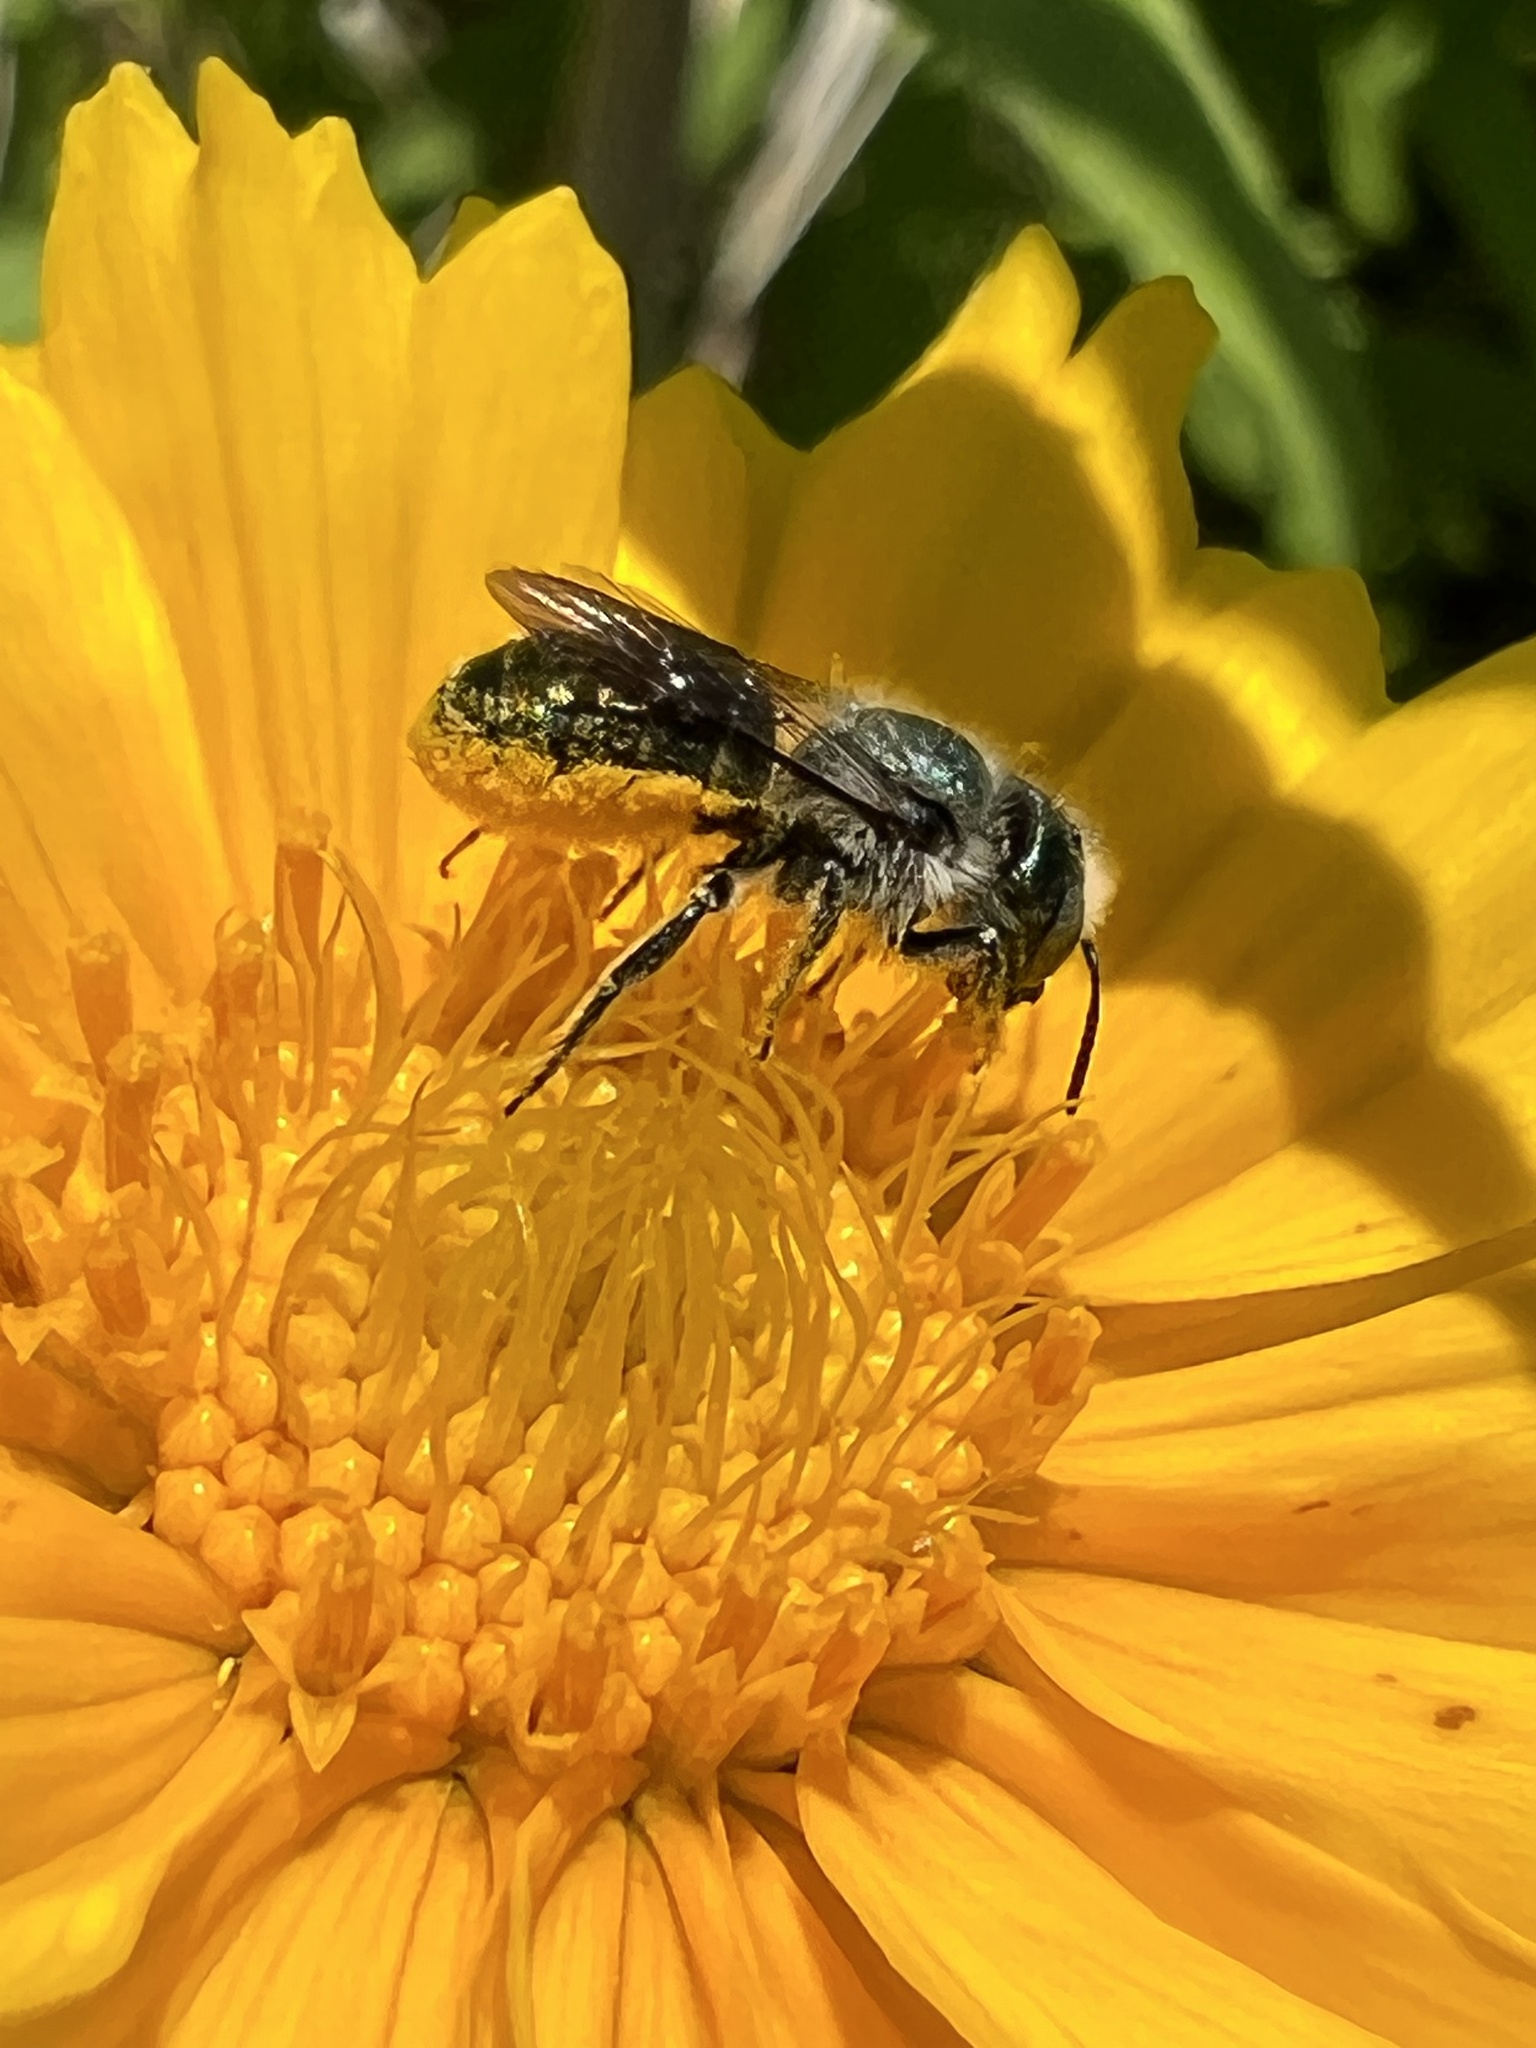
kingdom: Animalia
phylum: Arthropoda
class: Insecta
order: Hymenoptera
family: Megachilidae
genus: Osmia
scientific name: Osmia georgica
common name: Georgia mason
